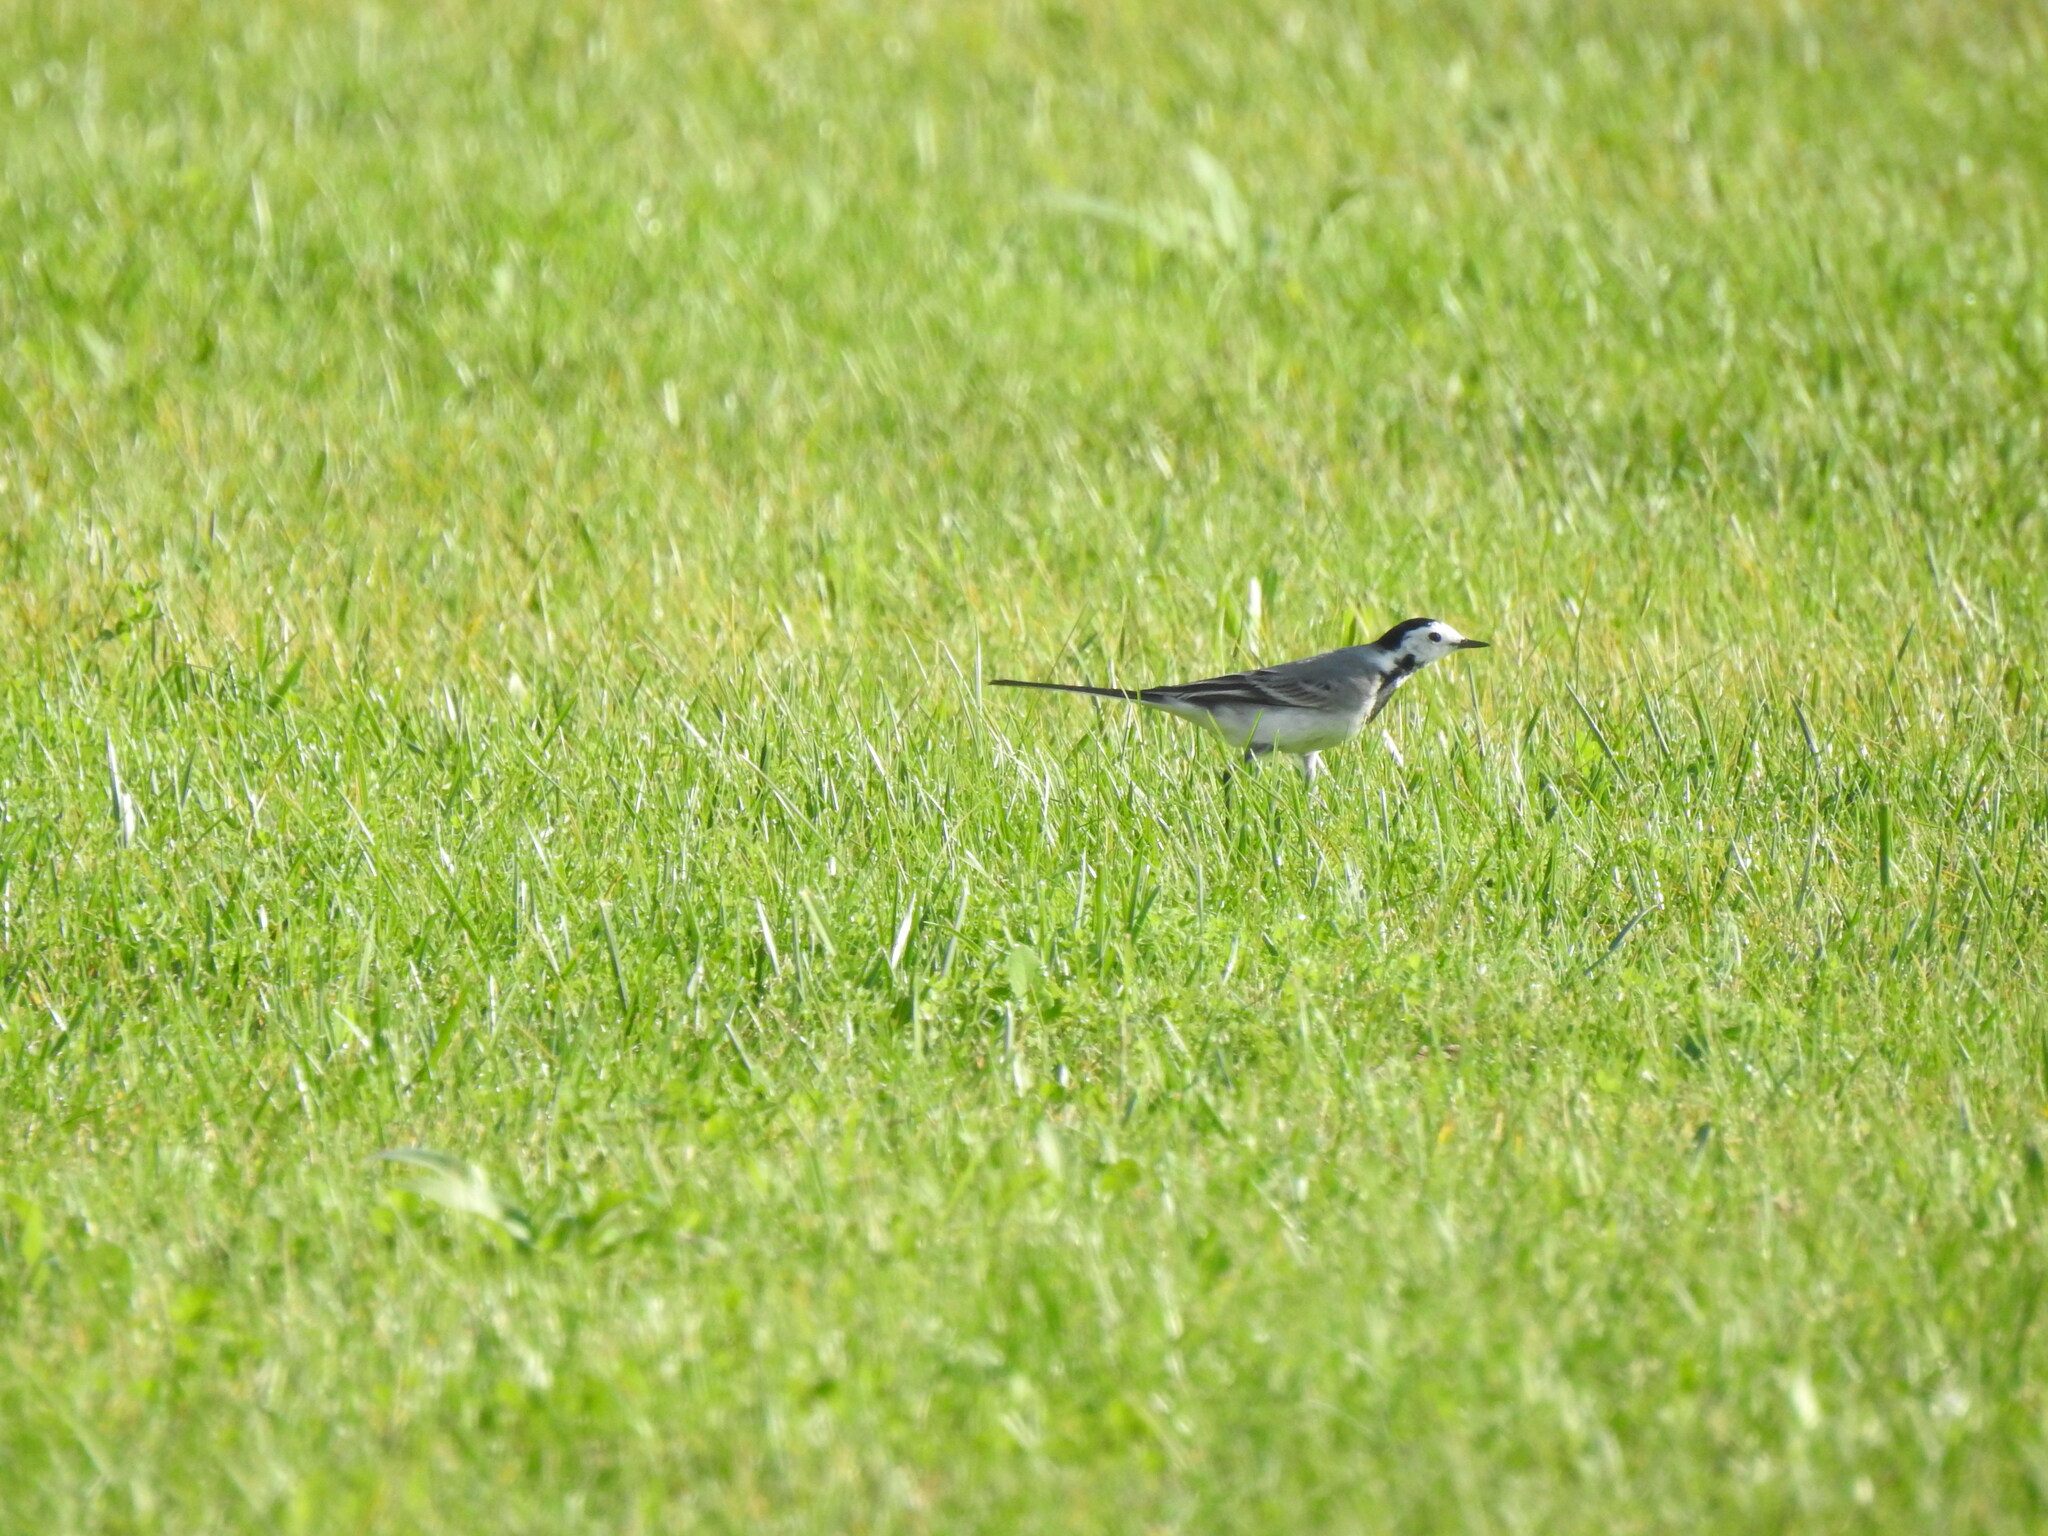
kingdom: Animalia
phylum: Chordata
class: Aves
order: Passeriformes
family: Motacillidae
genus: Motacilla
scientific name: Motacilla alba
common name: White wagtail
